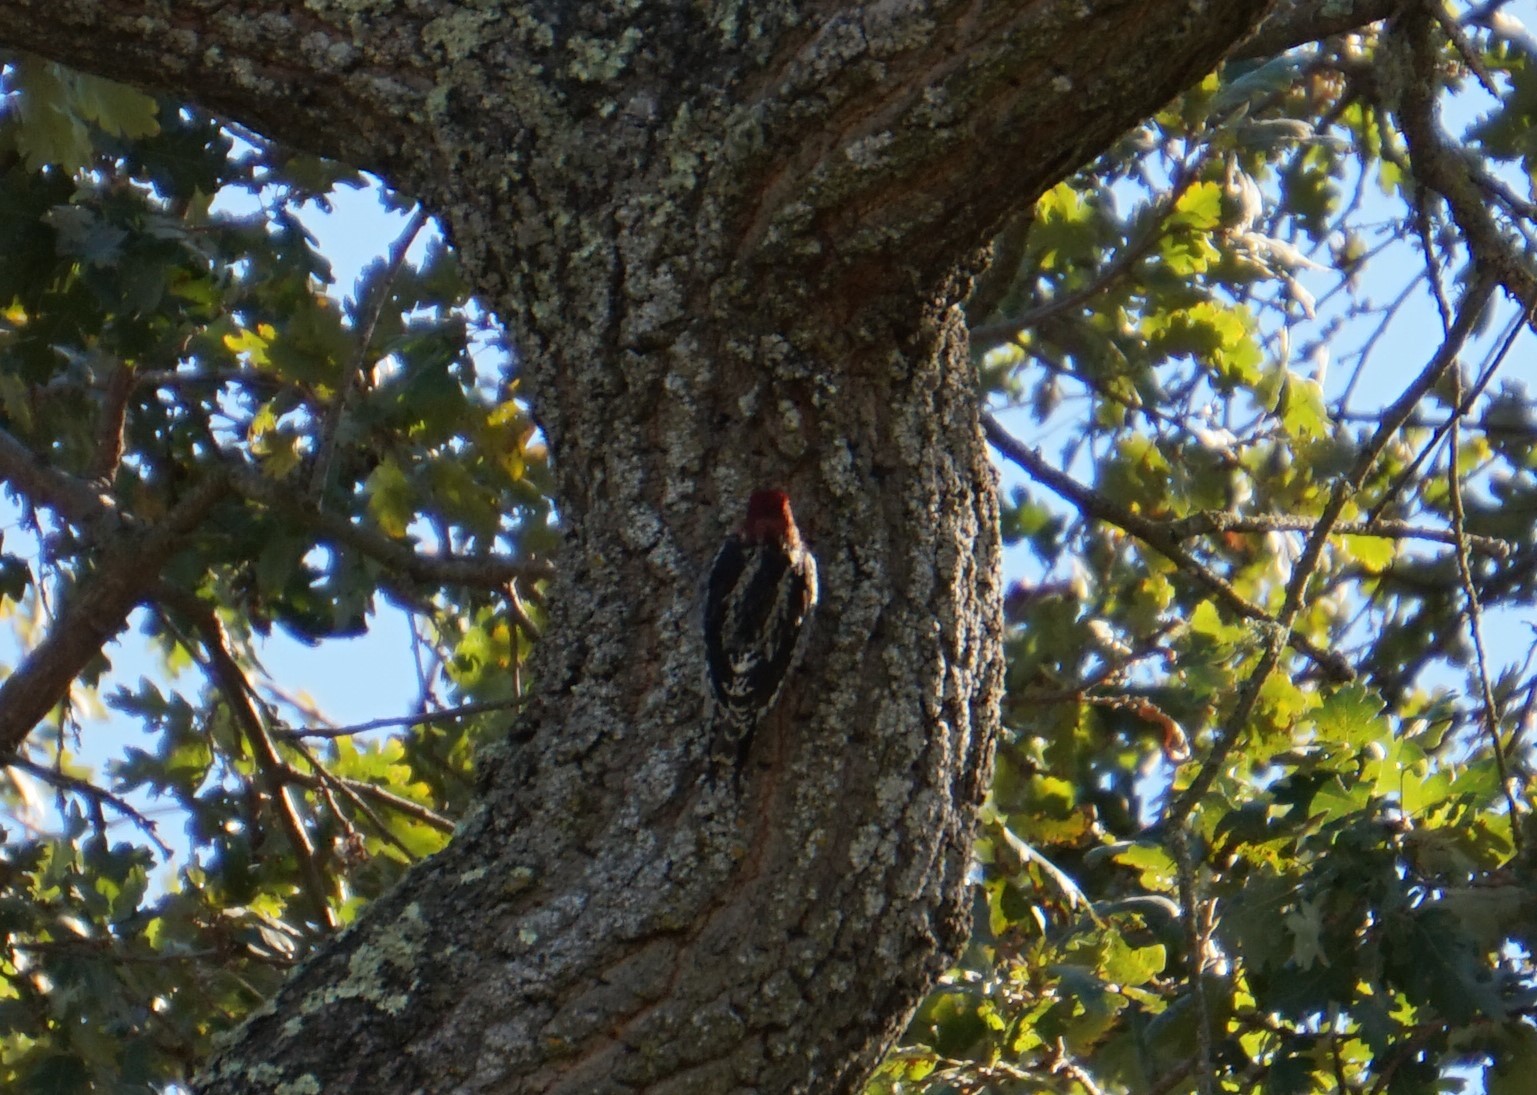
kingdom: Animalia
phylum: Chordata
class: Aves
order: Piciformes
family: Picidae
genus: Sphyrapicus
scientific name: Sphyrapicus ruber
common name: Red-breasted sapsucker
